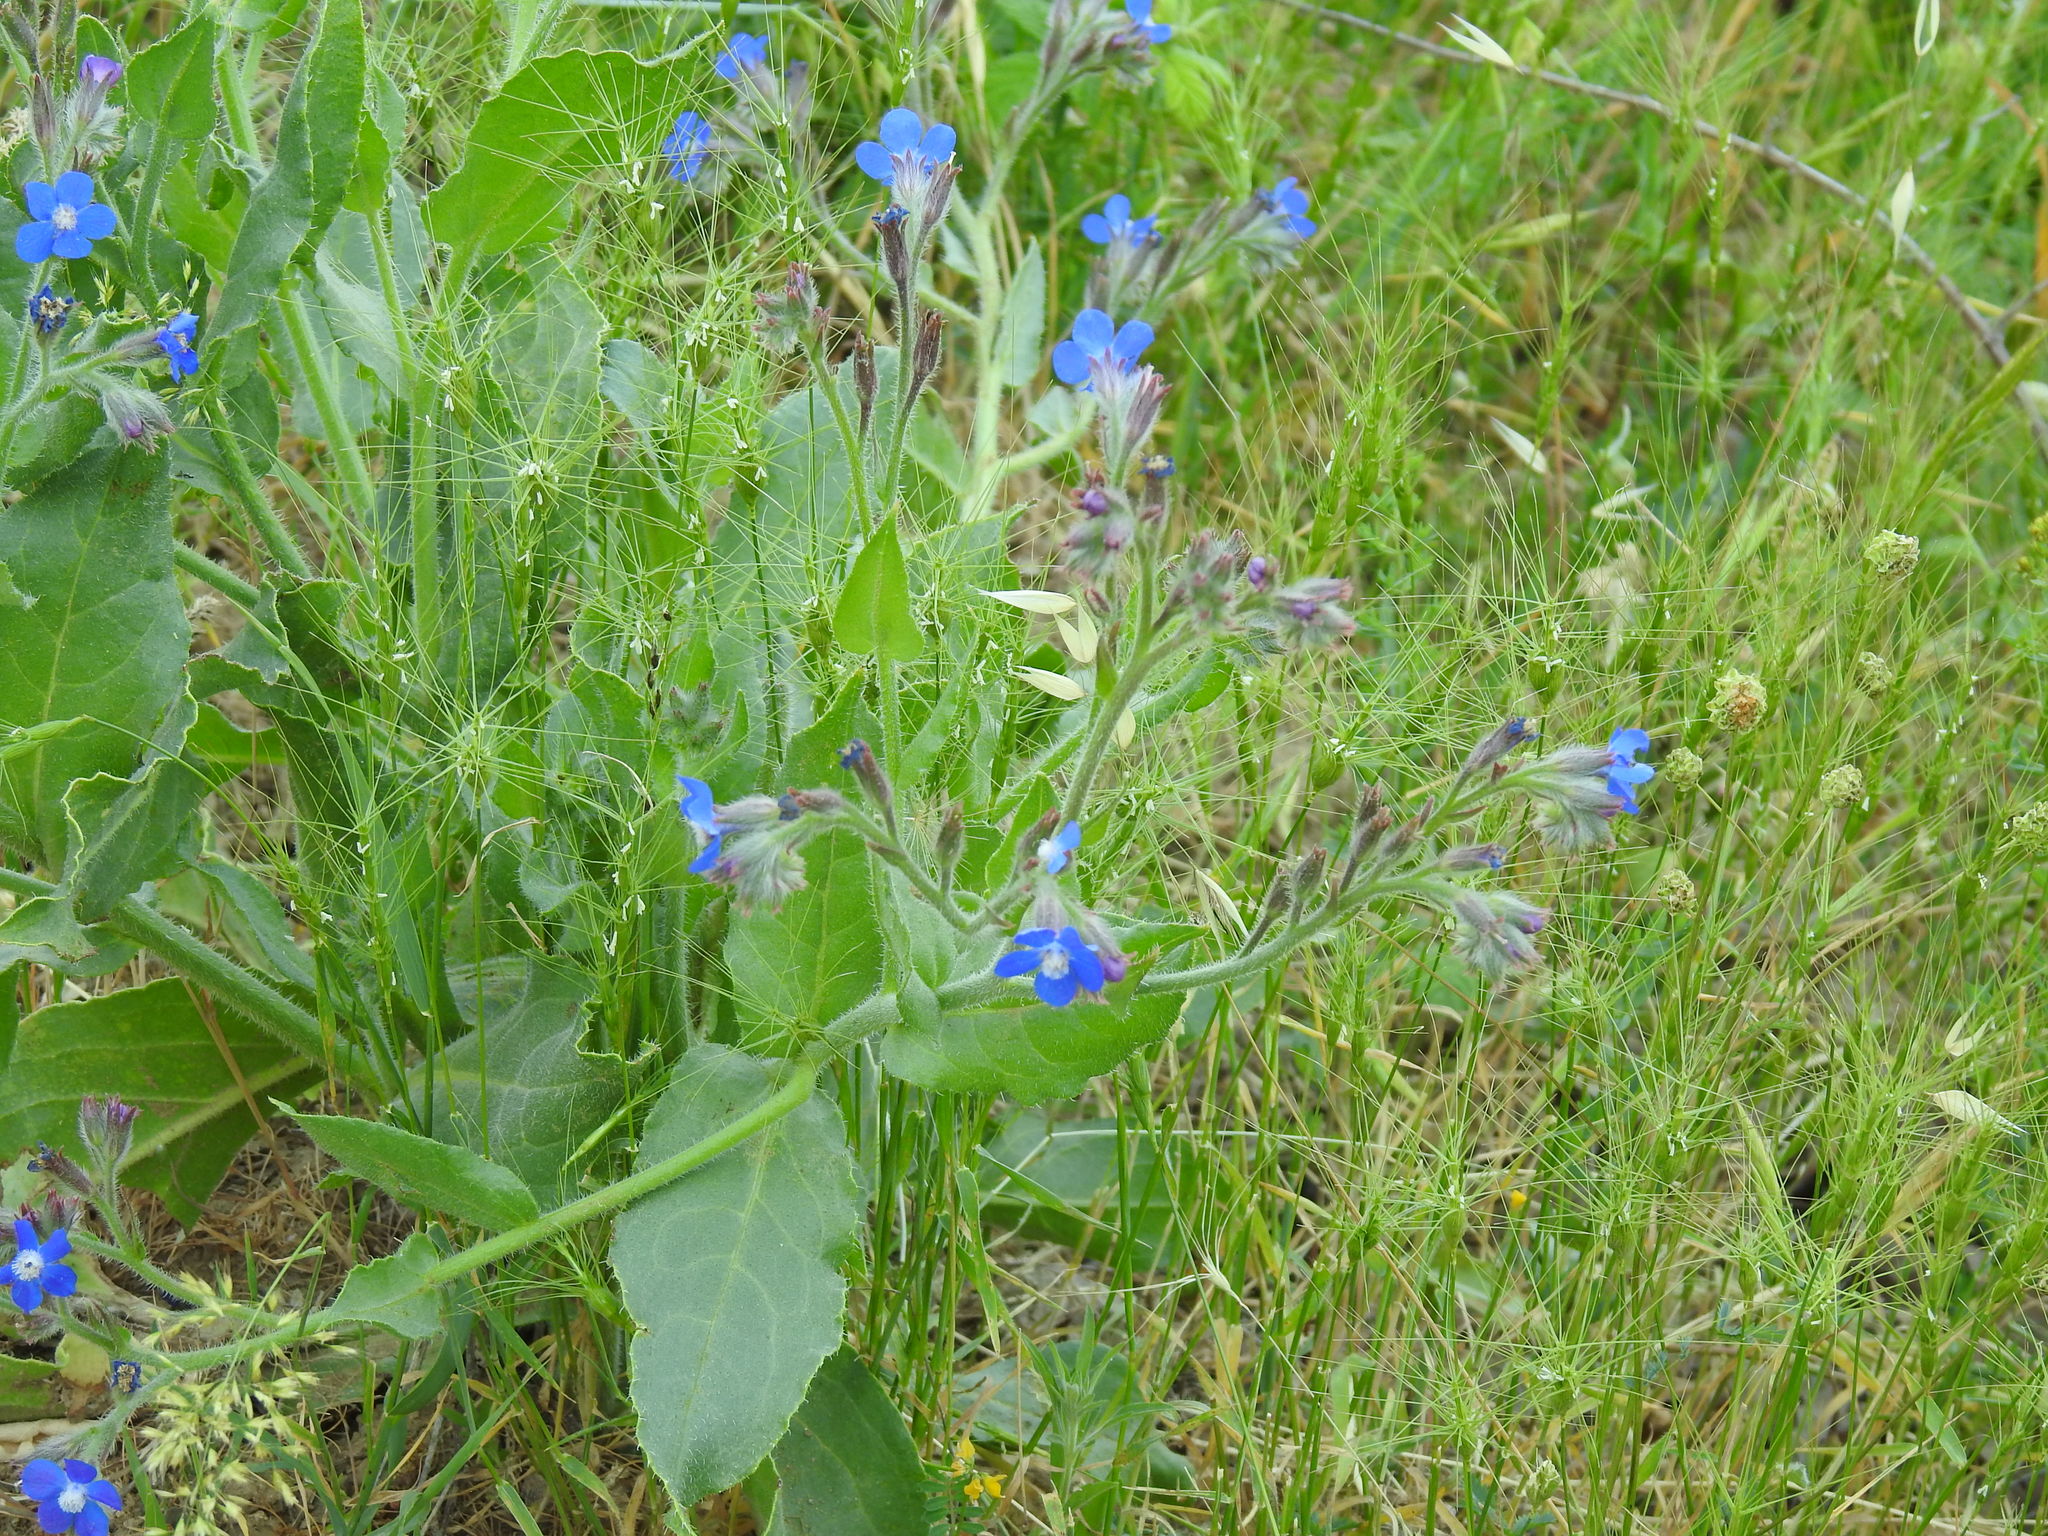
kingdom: Plantae
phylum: Tracheophyta
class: Magnoliopsida
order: Boraginales
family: Boraginaceae
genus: Anchusa
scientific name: Anchusa azurea
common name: Garden anchusa
